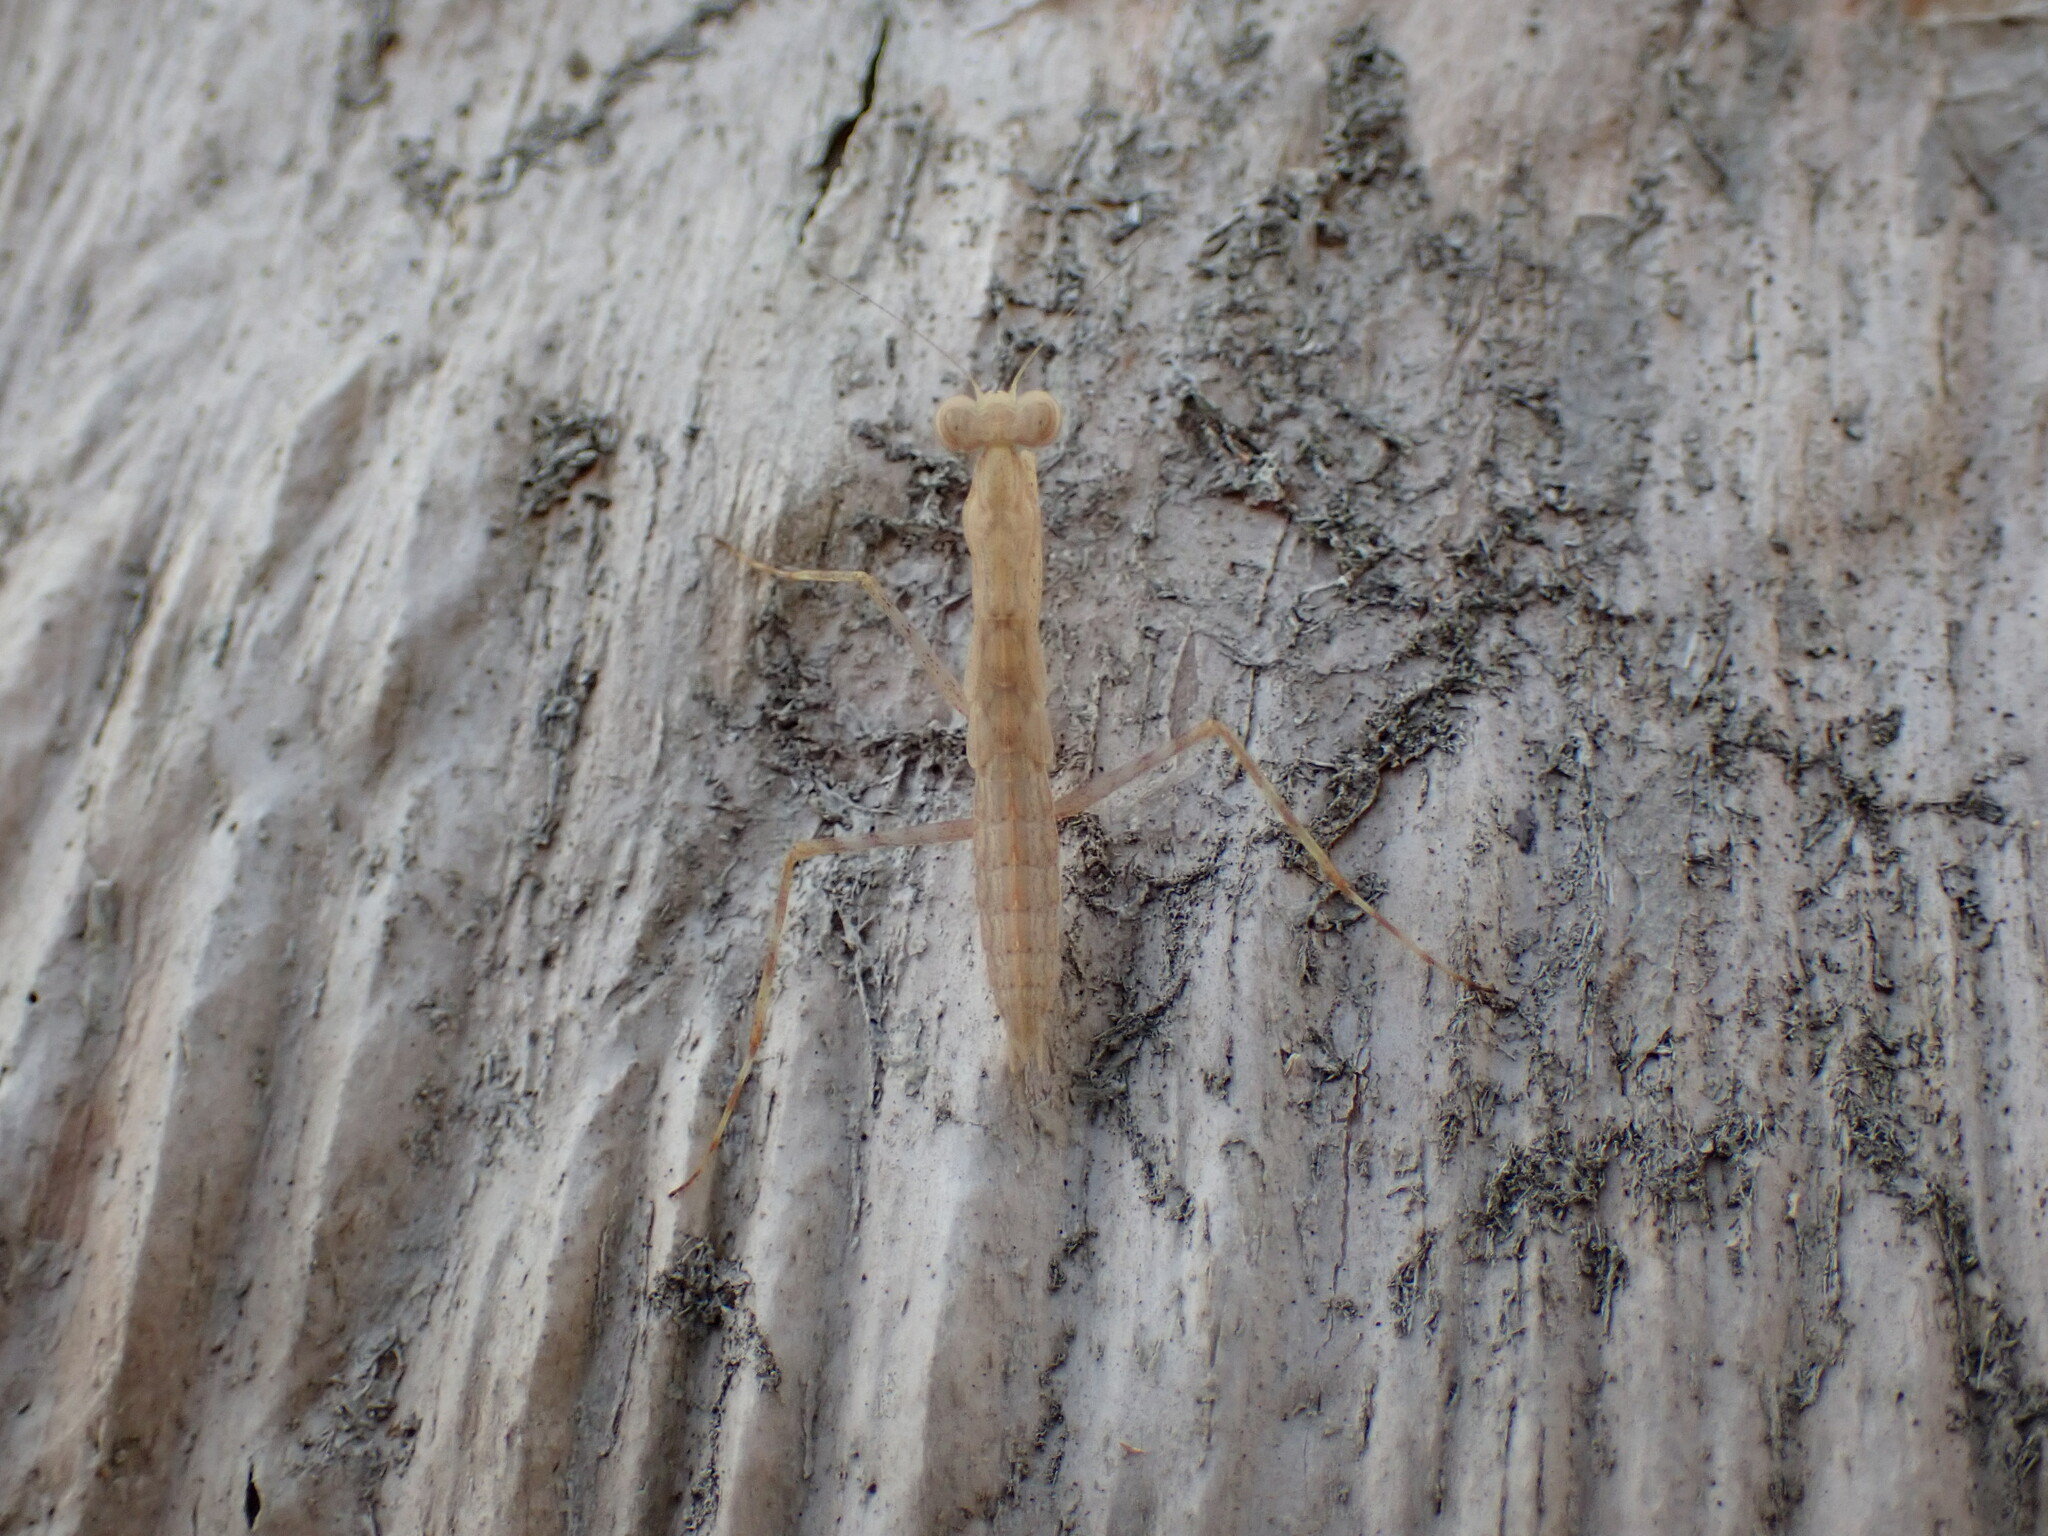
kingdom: Animalia
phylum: Arthropoda
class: Insecta
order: Mantodea
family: Nanomantidae
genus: Ima
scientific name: Ima fusca
